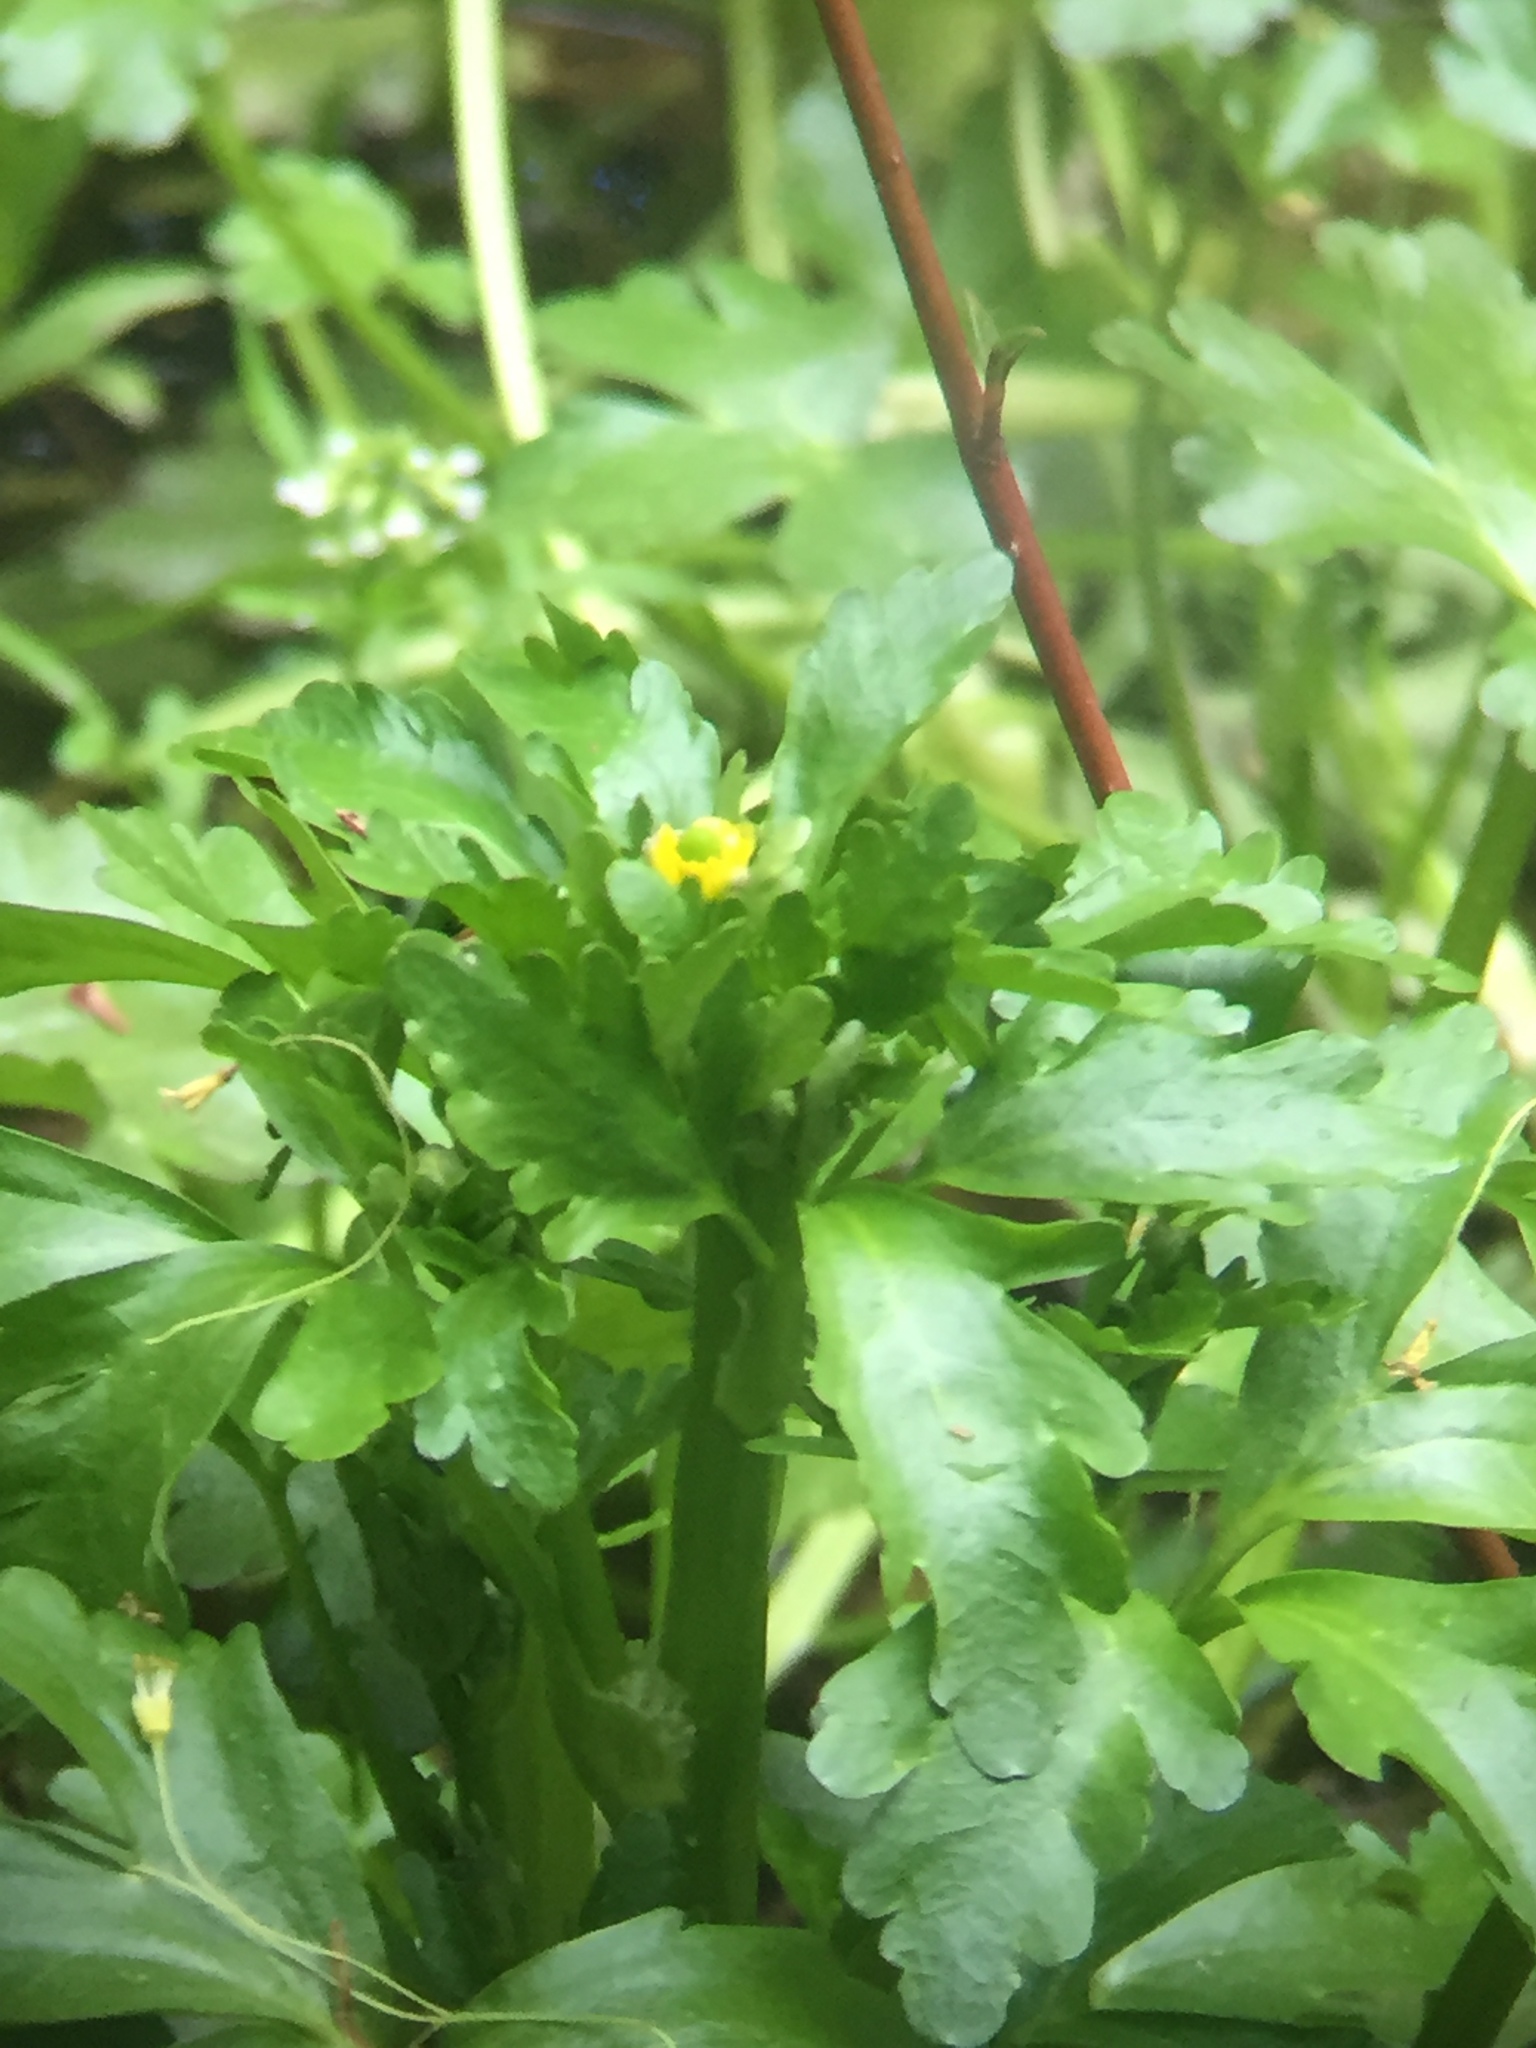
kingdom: Plantae
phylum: Tracheophyta
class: Magnoliopsida
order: Ranunculales
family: Ranunculaceae
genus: Ranunculus
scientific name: Ranunculus sceleratus
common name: Celery-leaved buttercup
